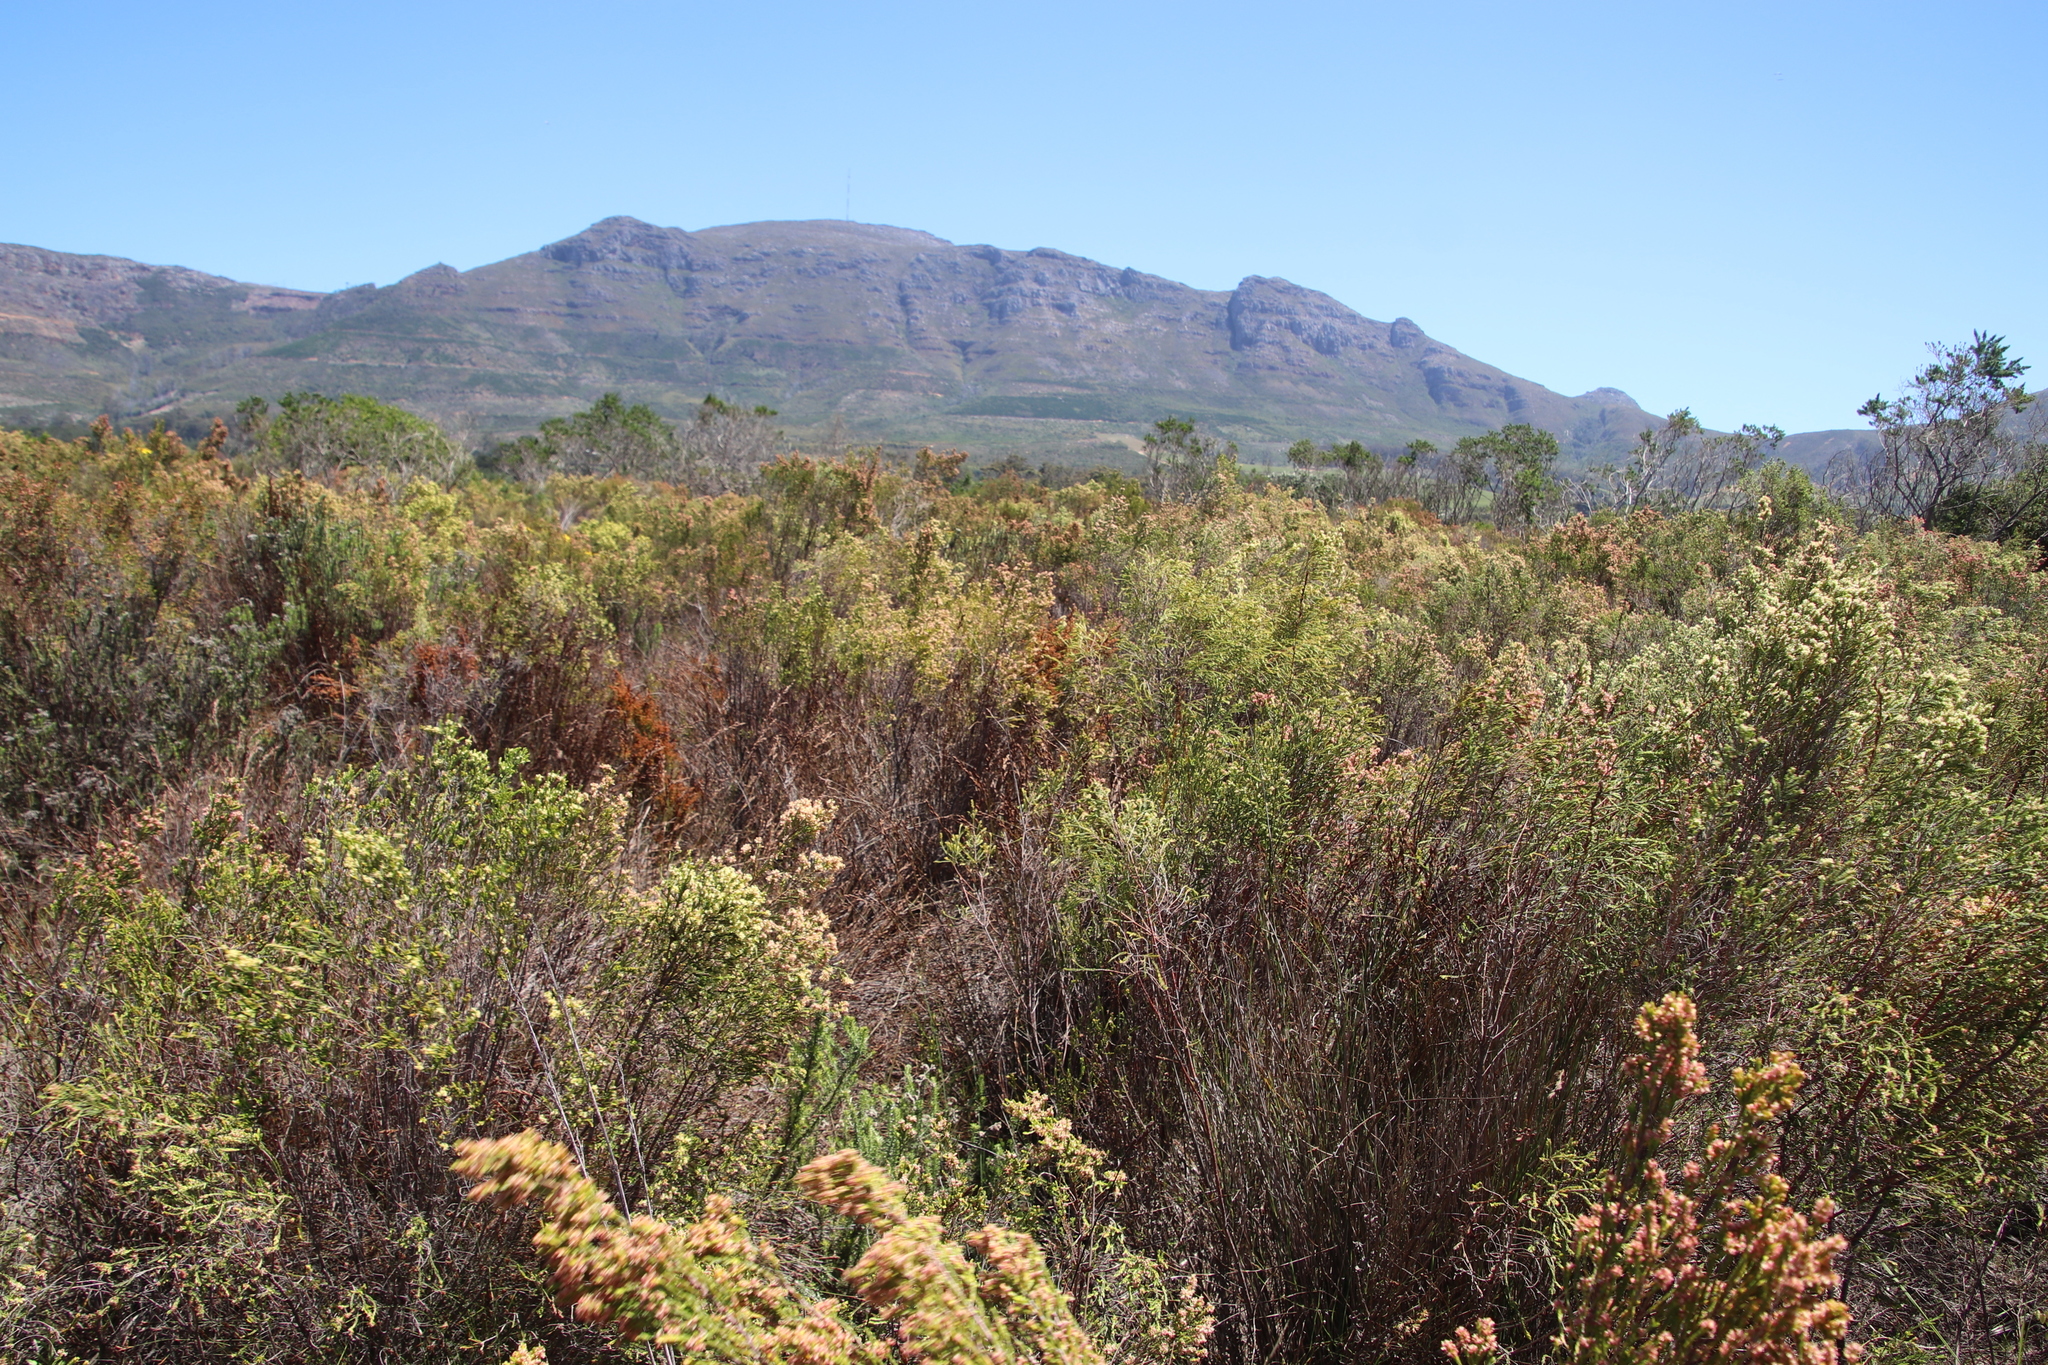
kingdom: Plantae
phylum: Tracheophyta
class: Magnoliopsida
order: Malvales
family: Thymelaeaceae
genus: Passerina
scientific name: Passerina corymbosa
